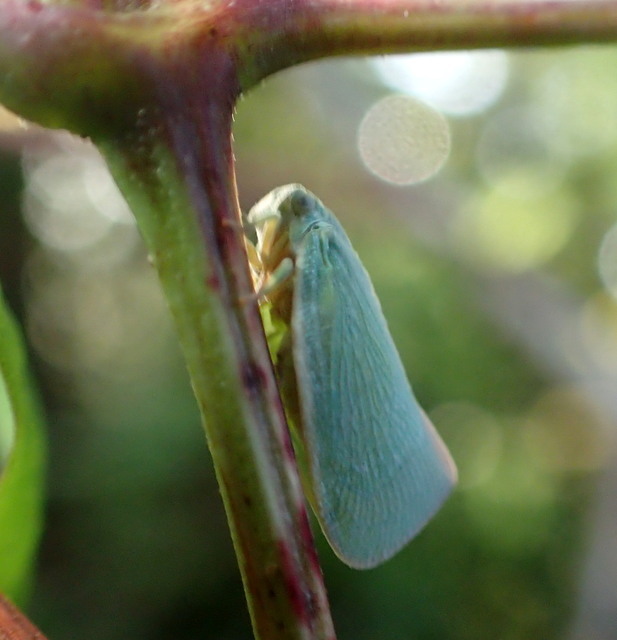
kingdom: Animalia
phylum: Arthropoda
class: Insecta
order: Hemiptera
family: Flatidae
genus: Flatormenis
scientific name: Flatormenis proxima
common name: Northern flatid planthopper
